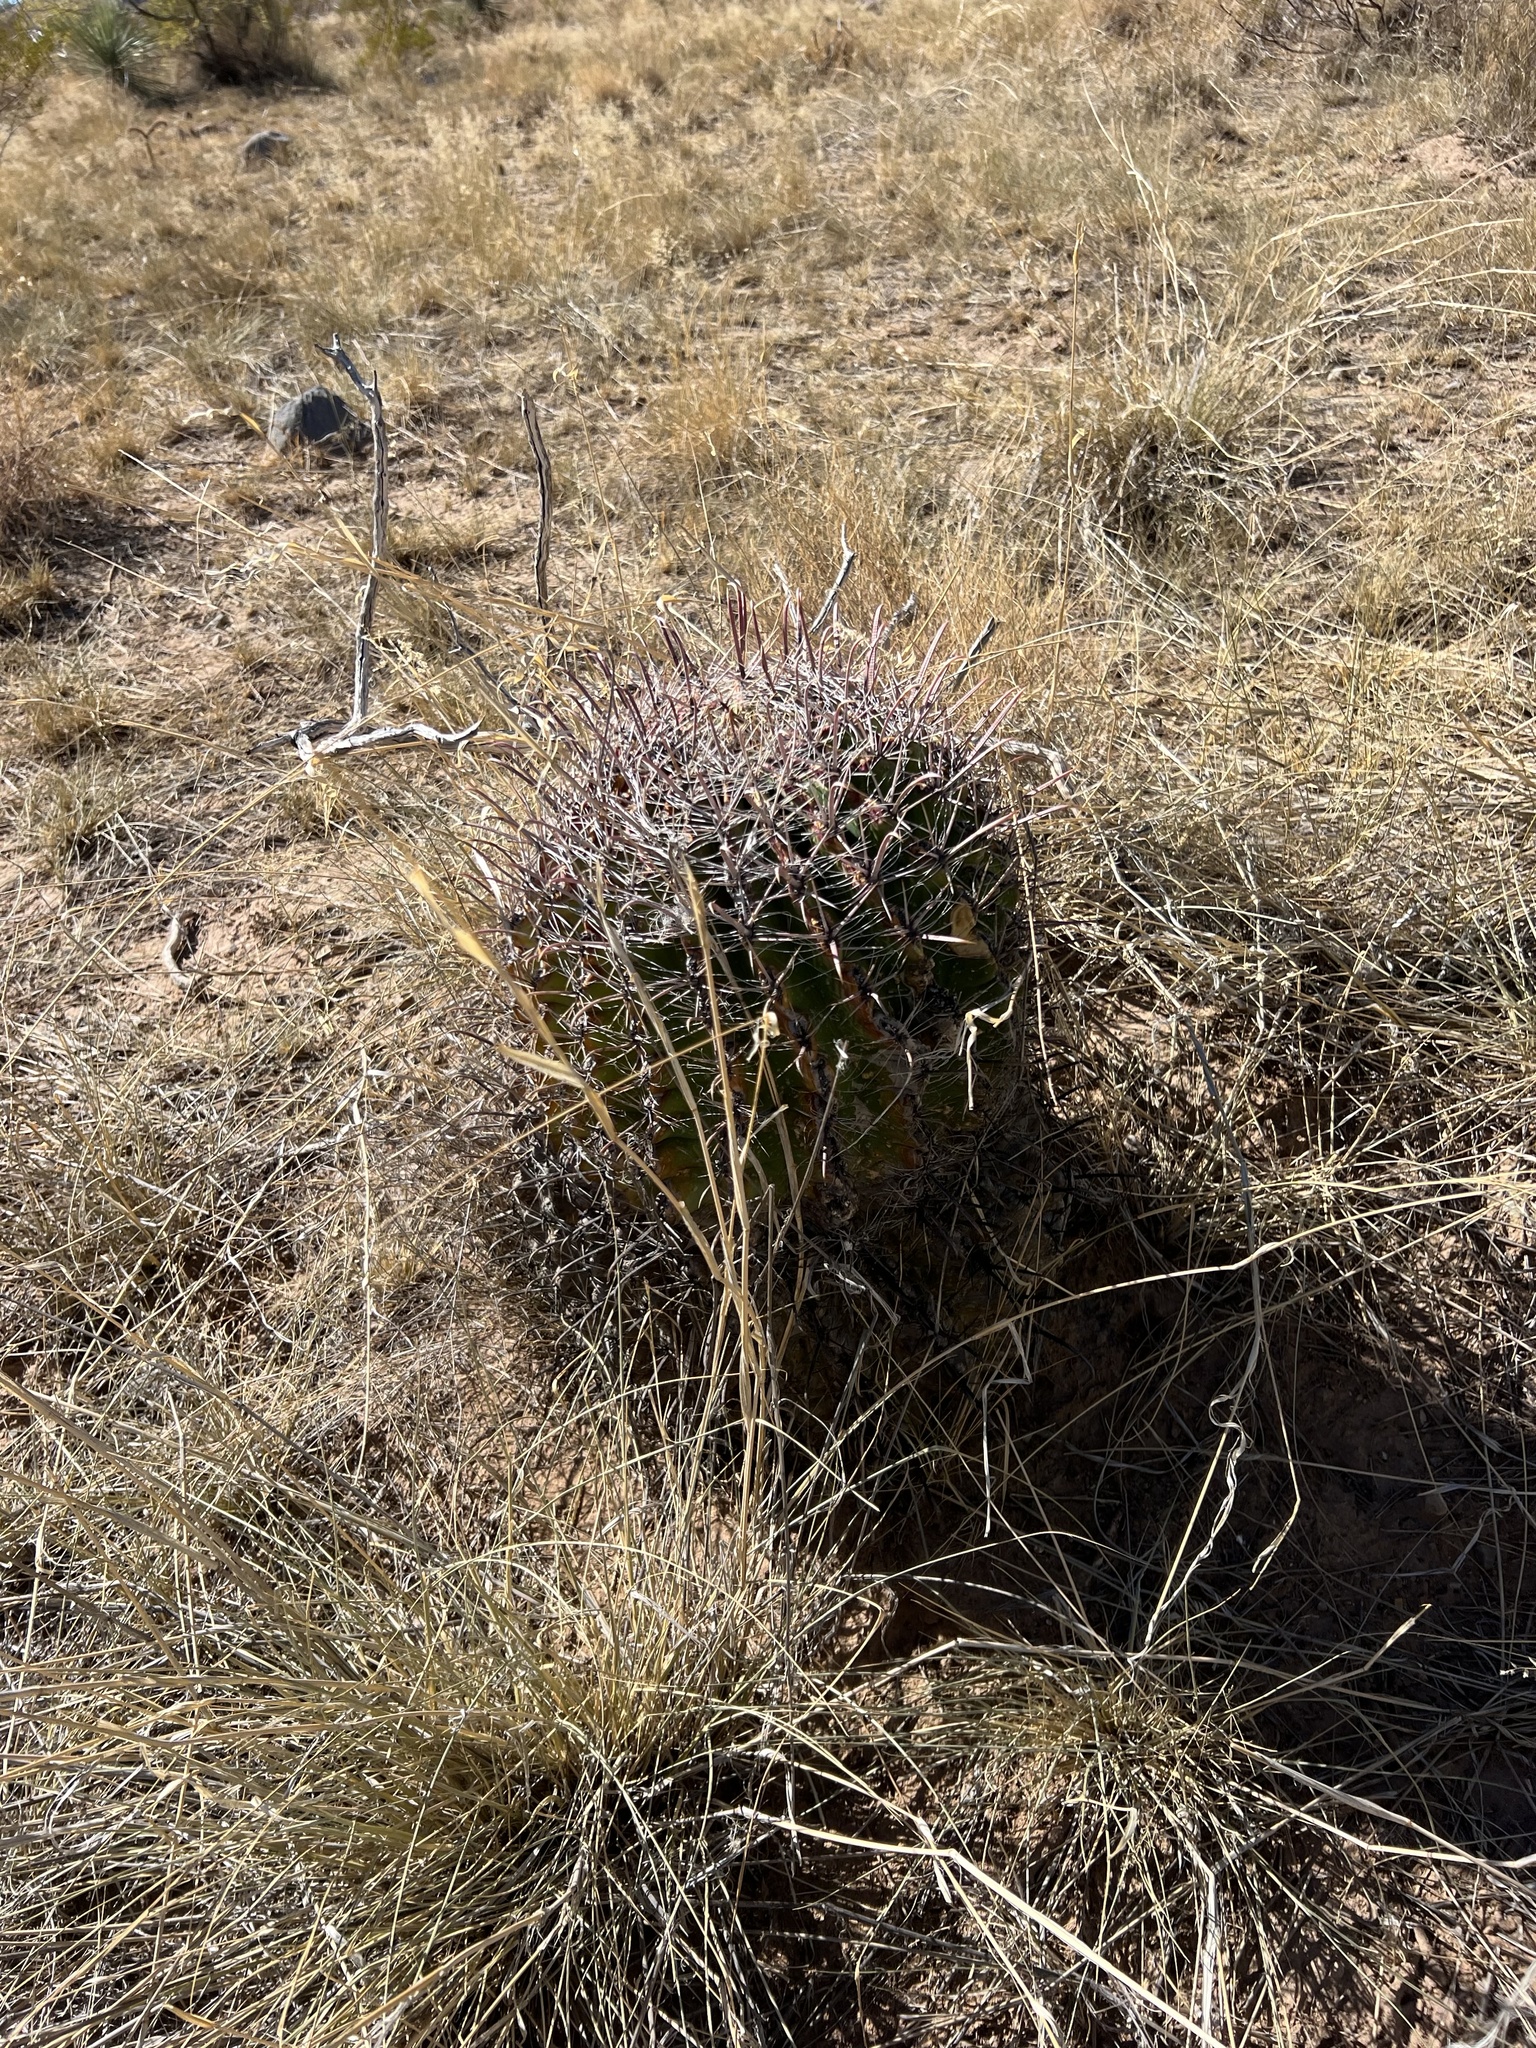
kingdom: Plantae
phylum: Tracheophyta
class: Magnoliopsida
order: Caryophyllales
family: Cactaceae
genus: Ferocactus
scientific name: Ferocactus wislizeni
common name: Candy barrel cactus
